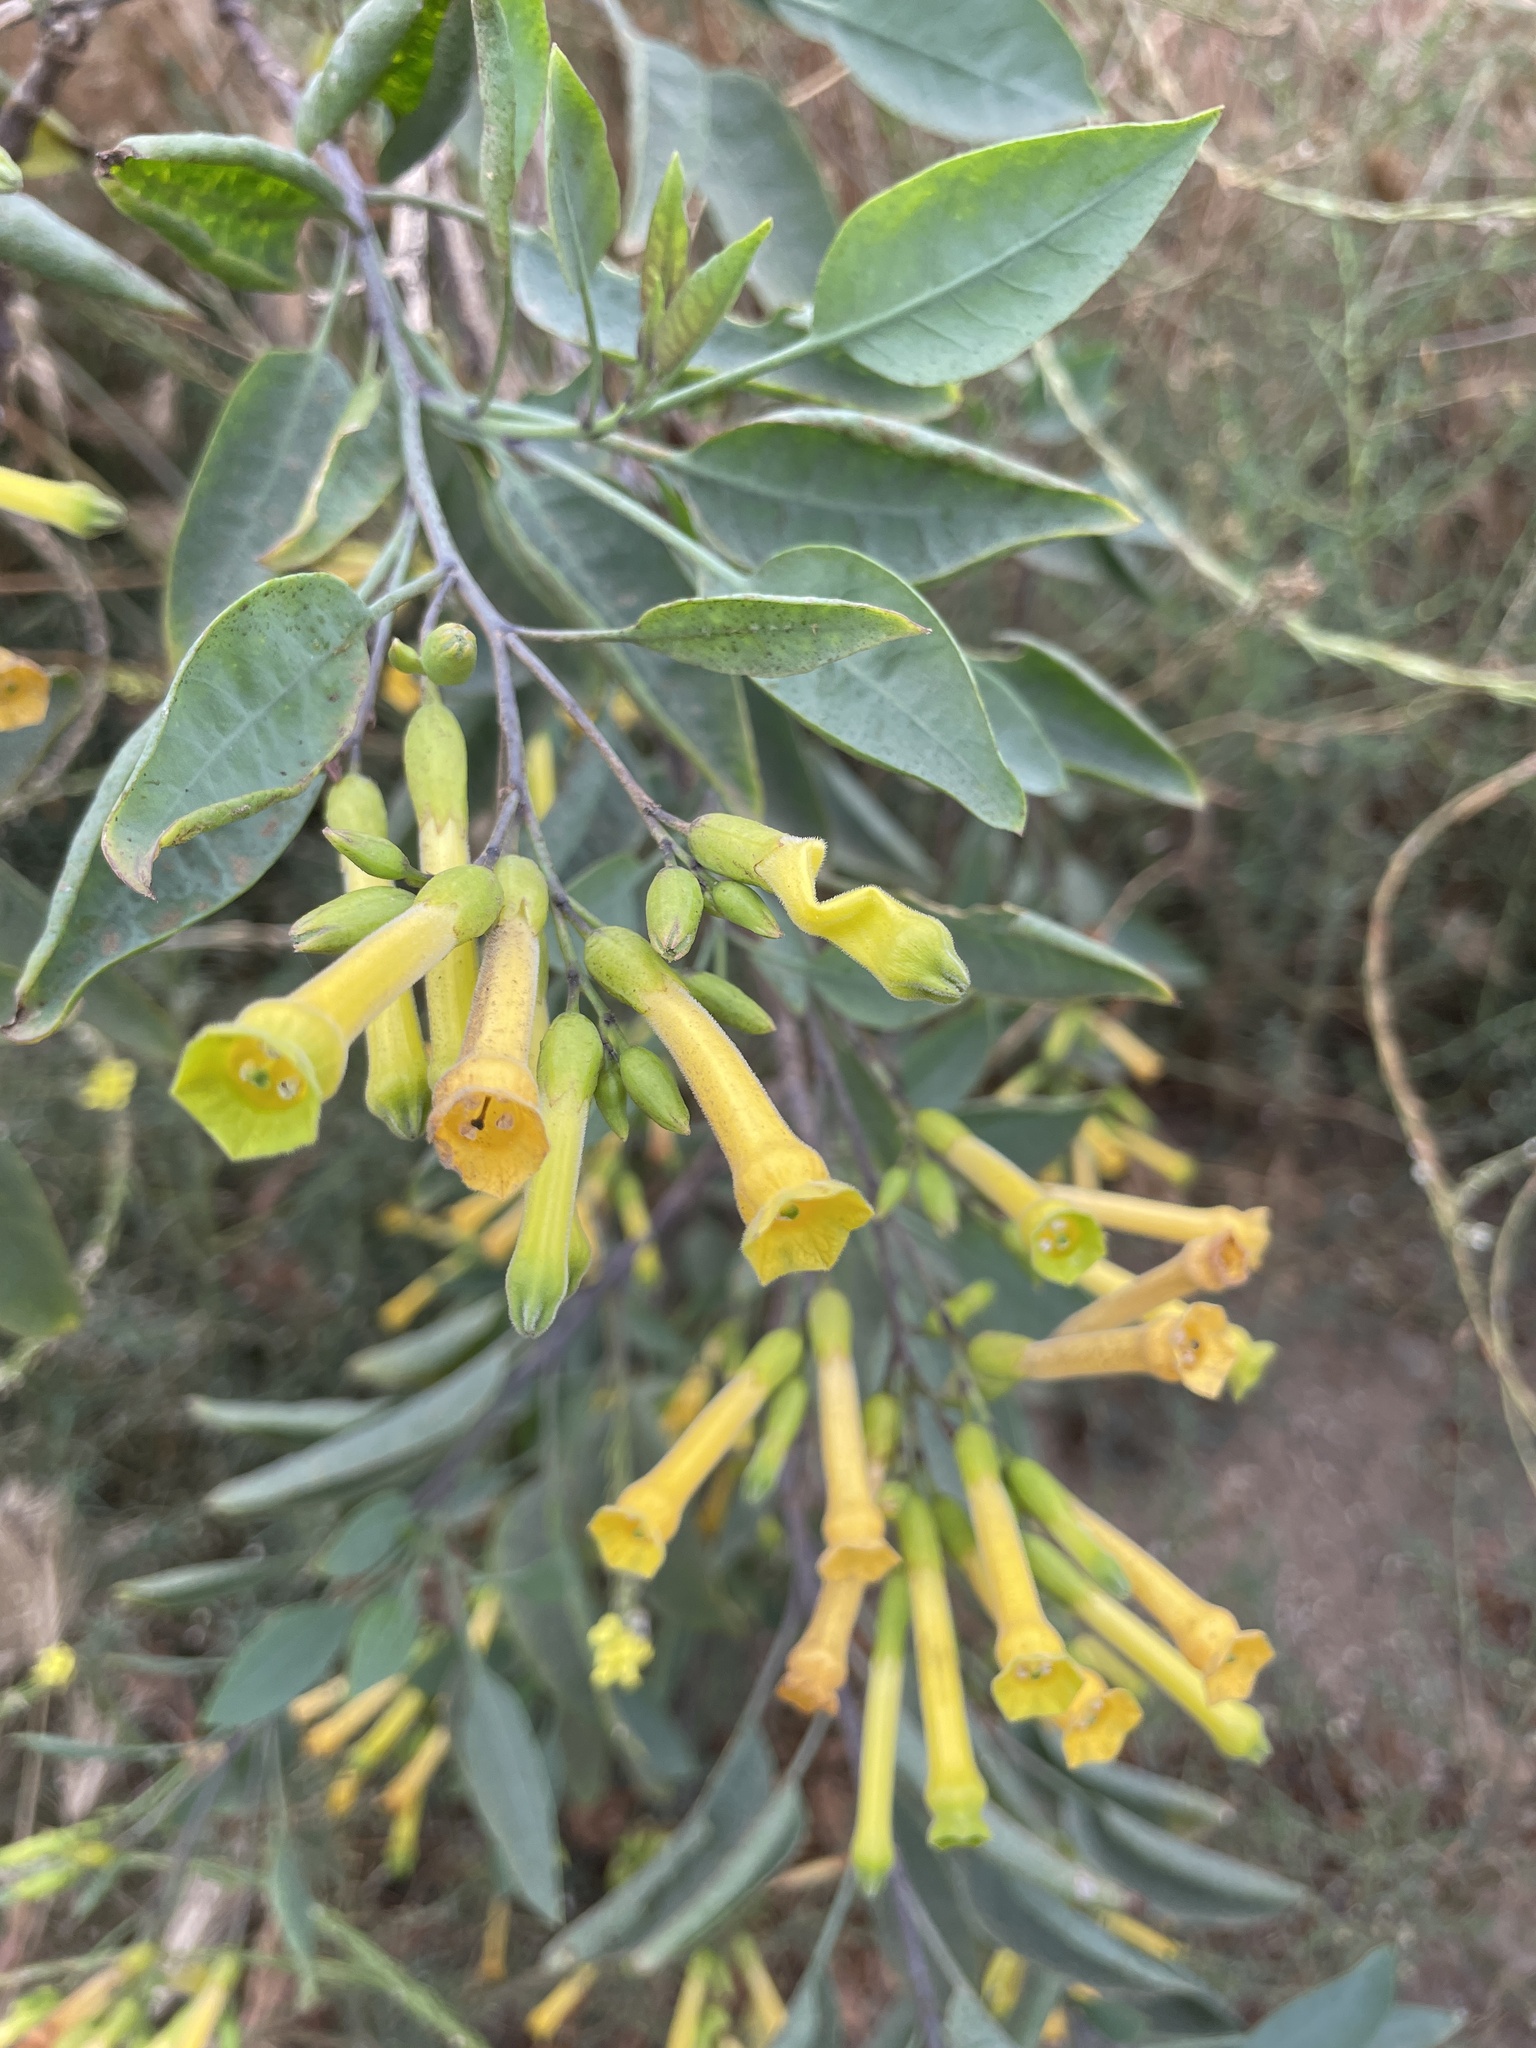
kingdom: Plantae
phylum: Tracheophyta
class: Magnoliopsida
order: Solanales
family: Solanaceae
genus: Nicotiana
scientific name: Nicotiana glauca
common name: Tree tobacco
